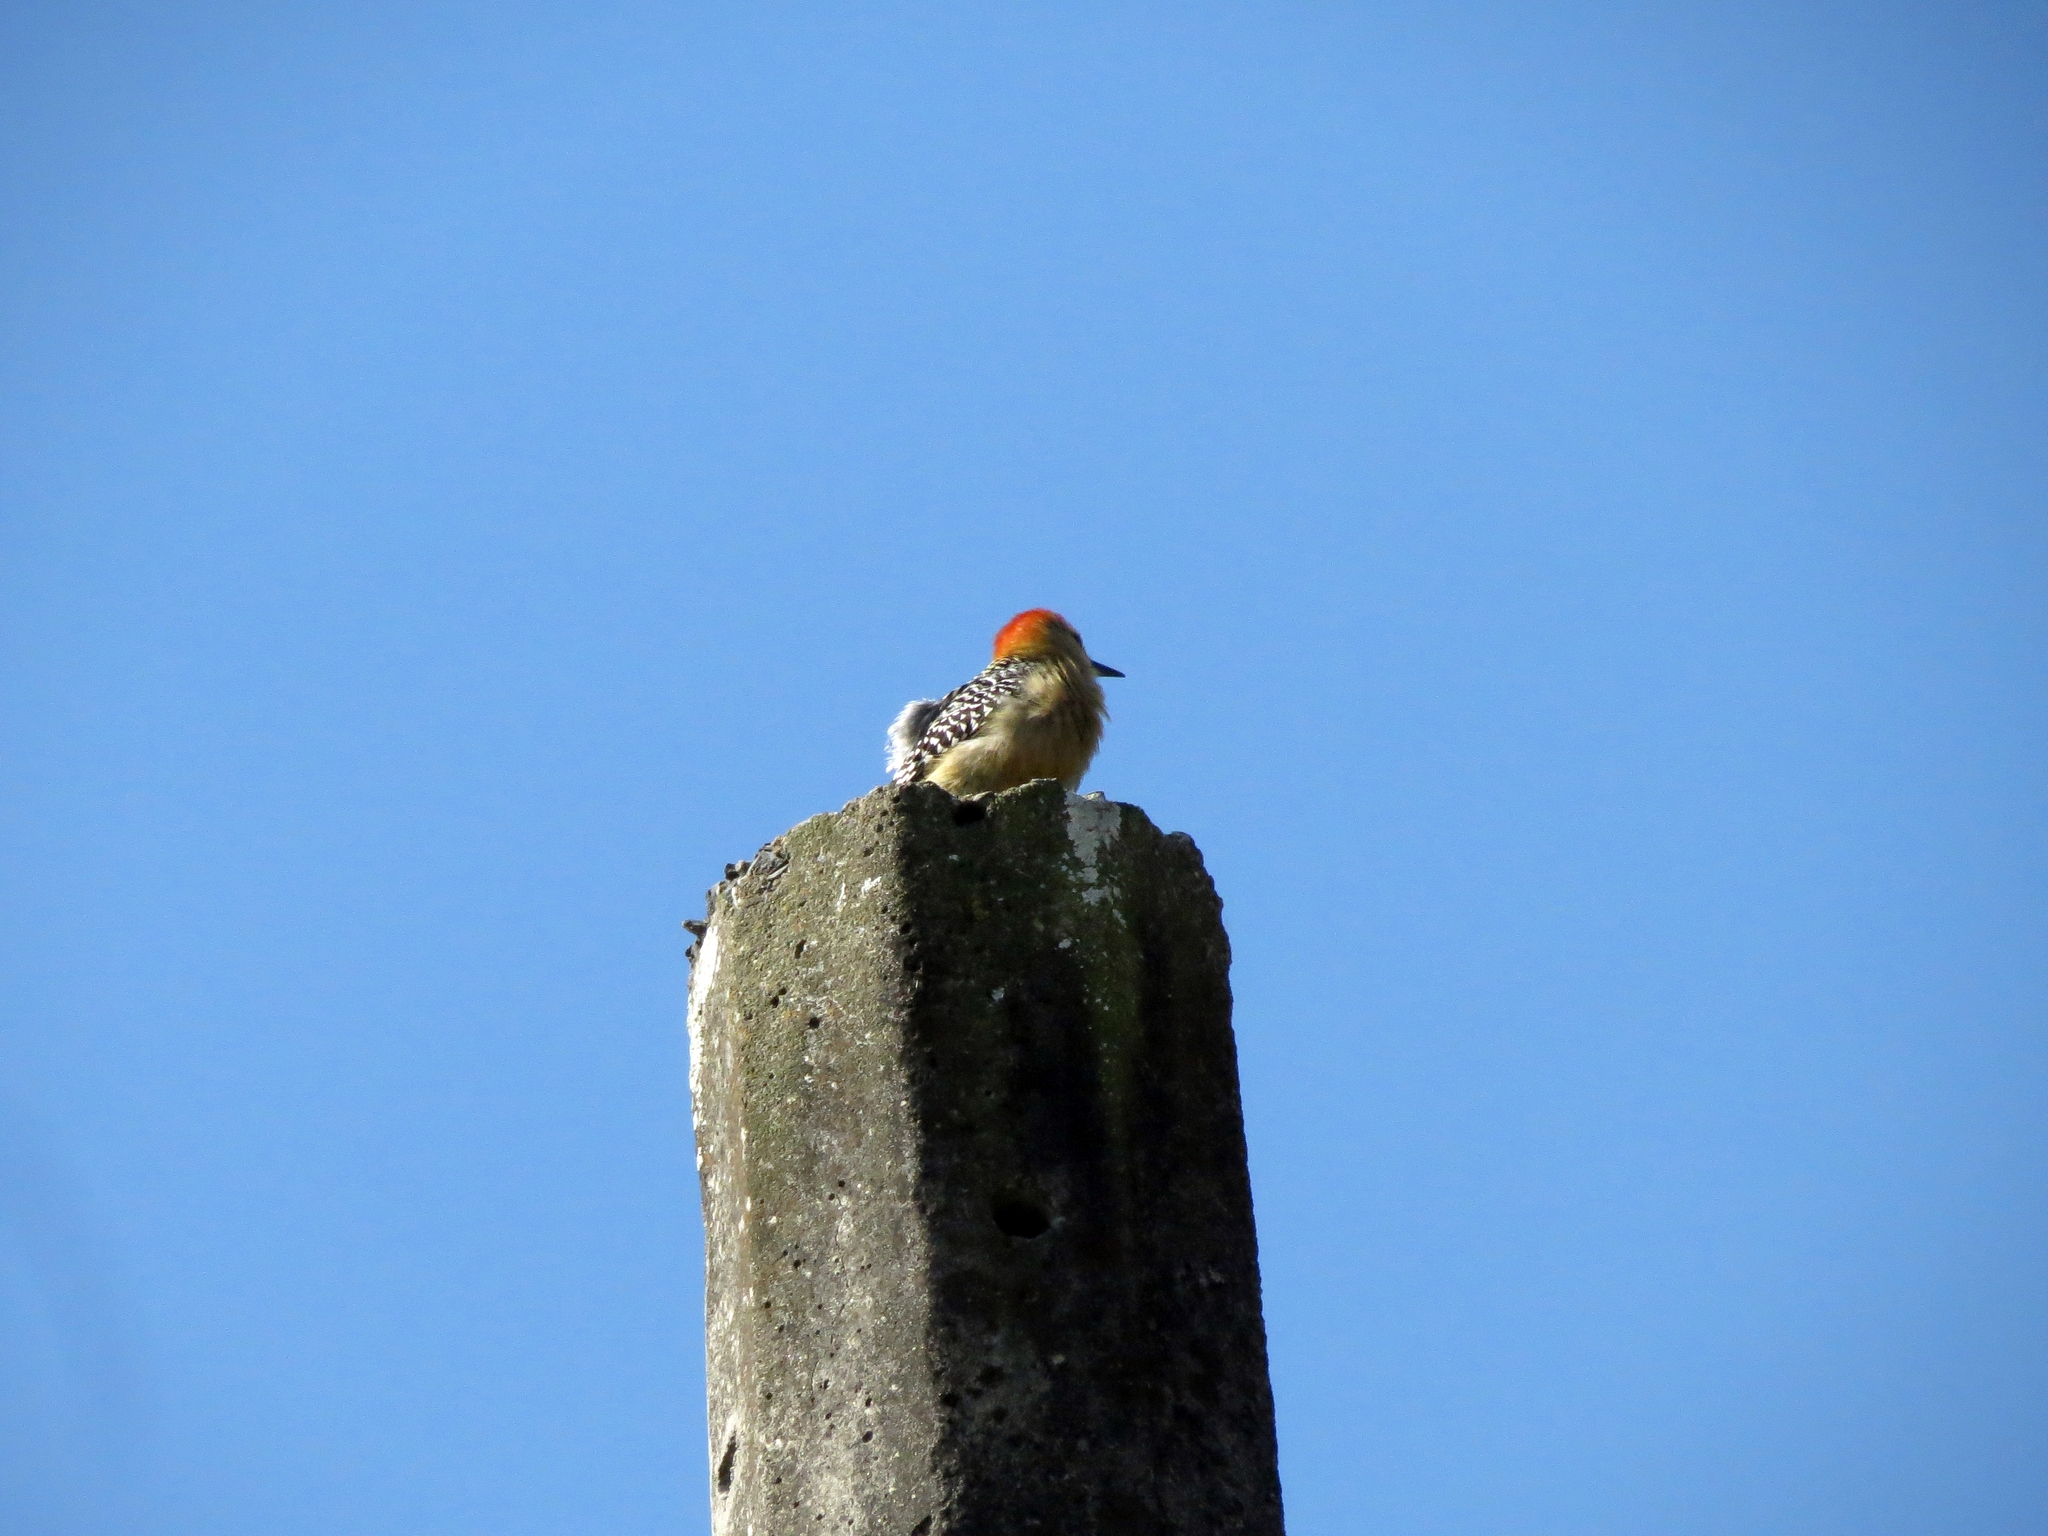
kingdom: Animalia
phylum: Chordata
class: Aves
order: Piciformes
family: Picidae
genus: Melanerpes
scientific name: Melanerpes rubricapillus
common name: Red-crowned woodpecker
